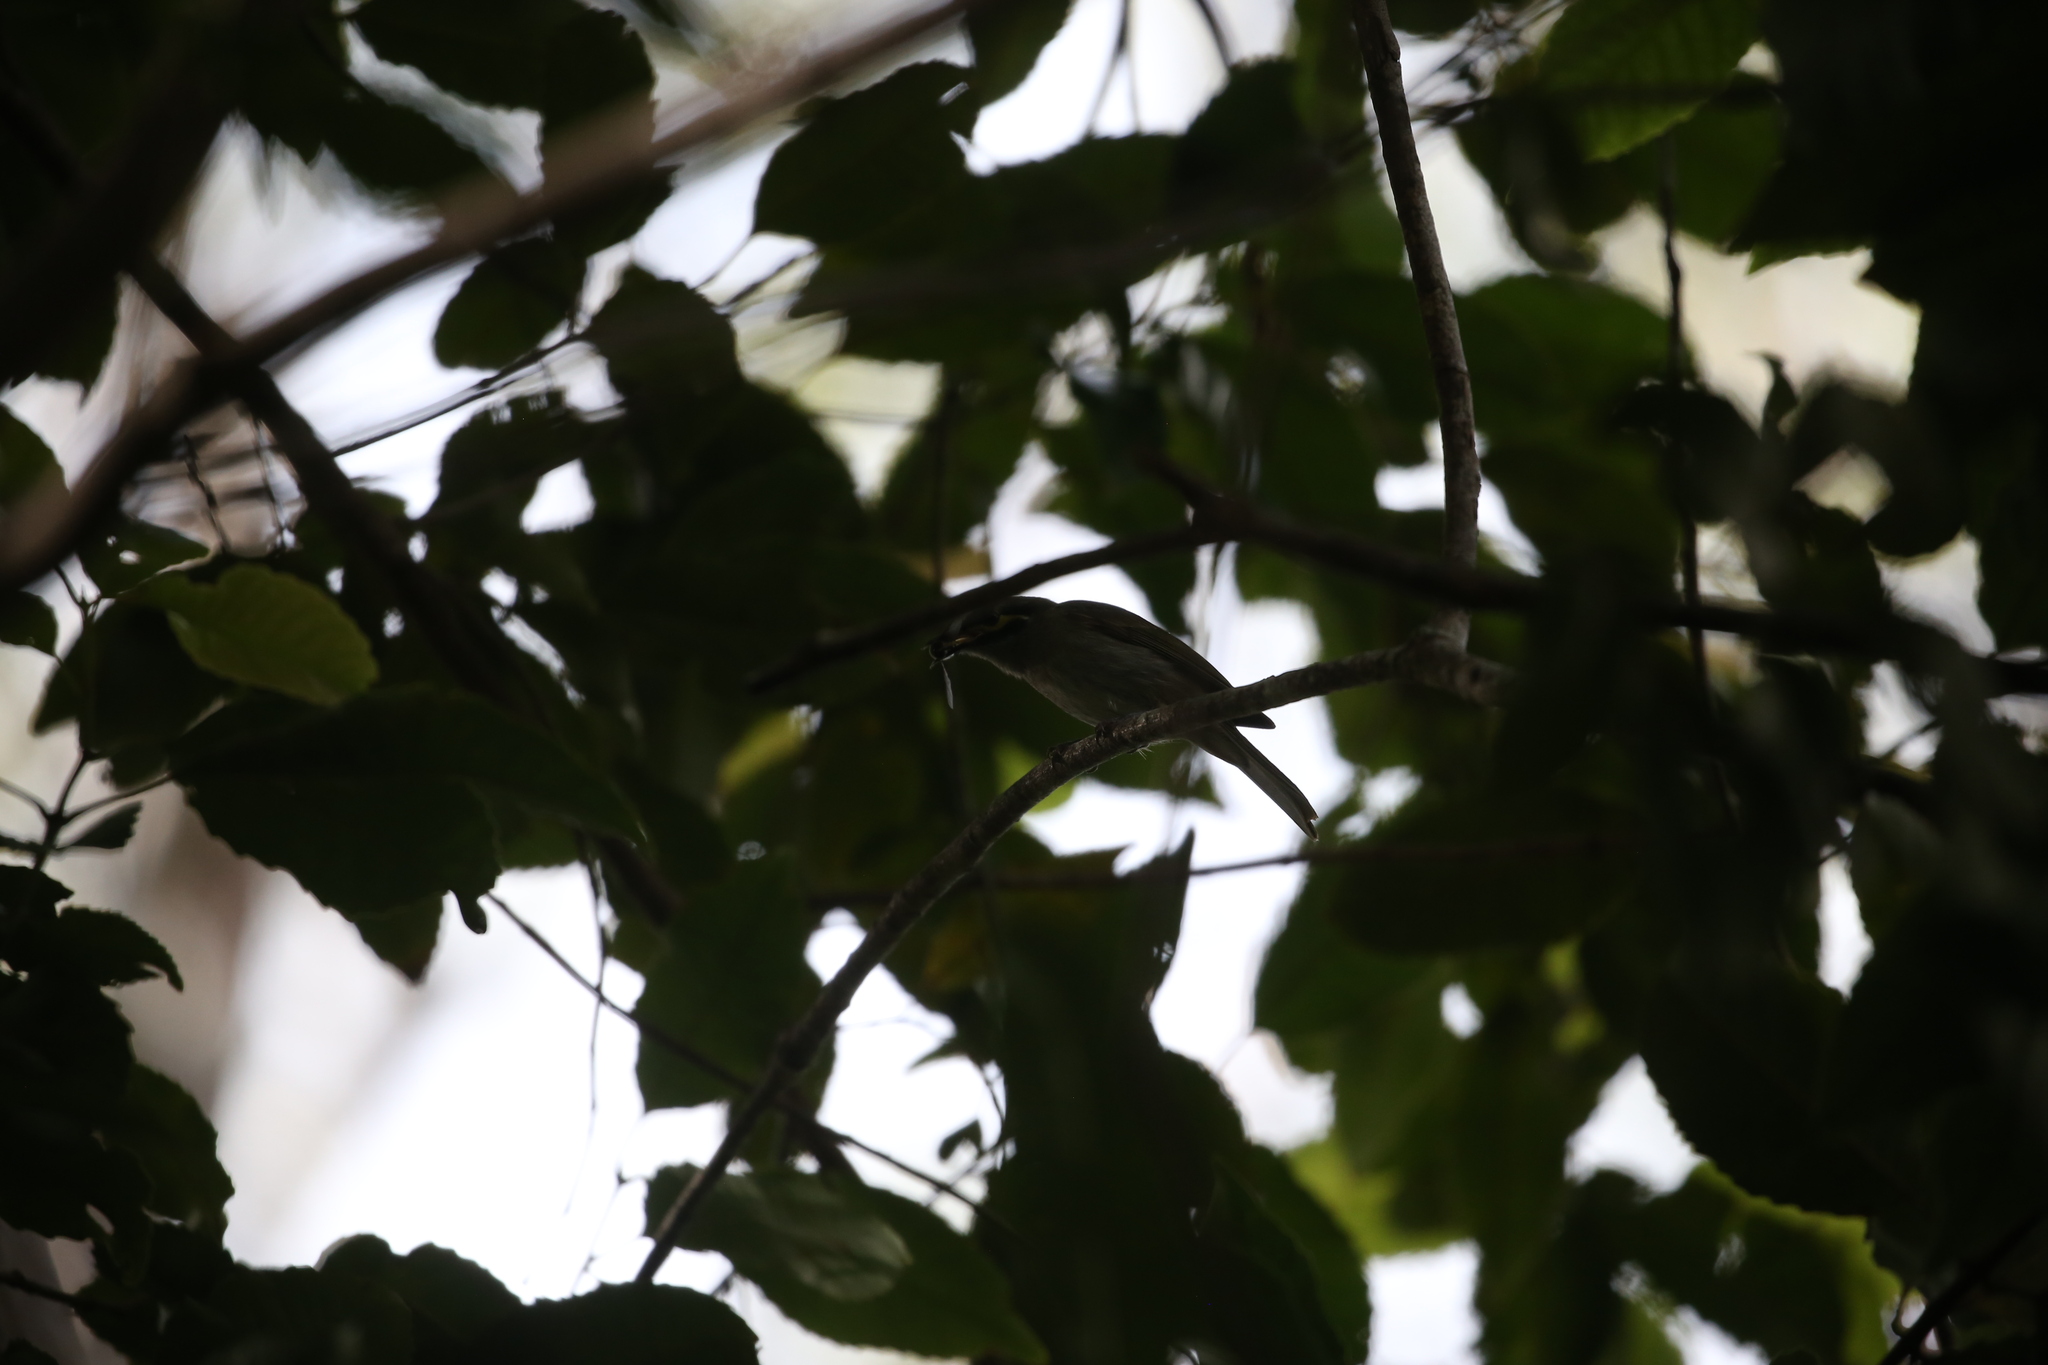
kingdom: Animalia
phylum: Chordata
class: Aves
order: Passeriformes
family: Meliphagidae
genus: Caligavis
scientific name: Caligavis chrysops
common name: Yellow-faced honeyeater
